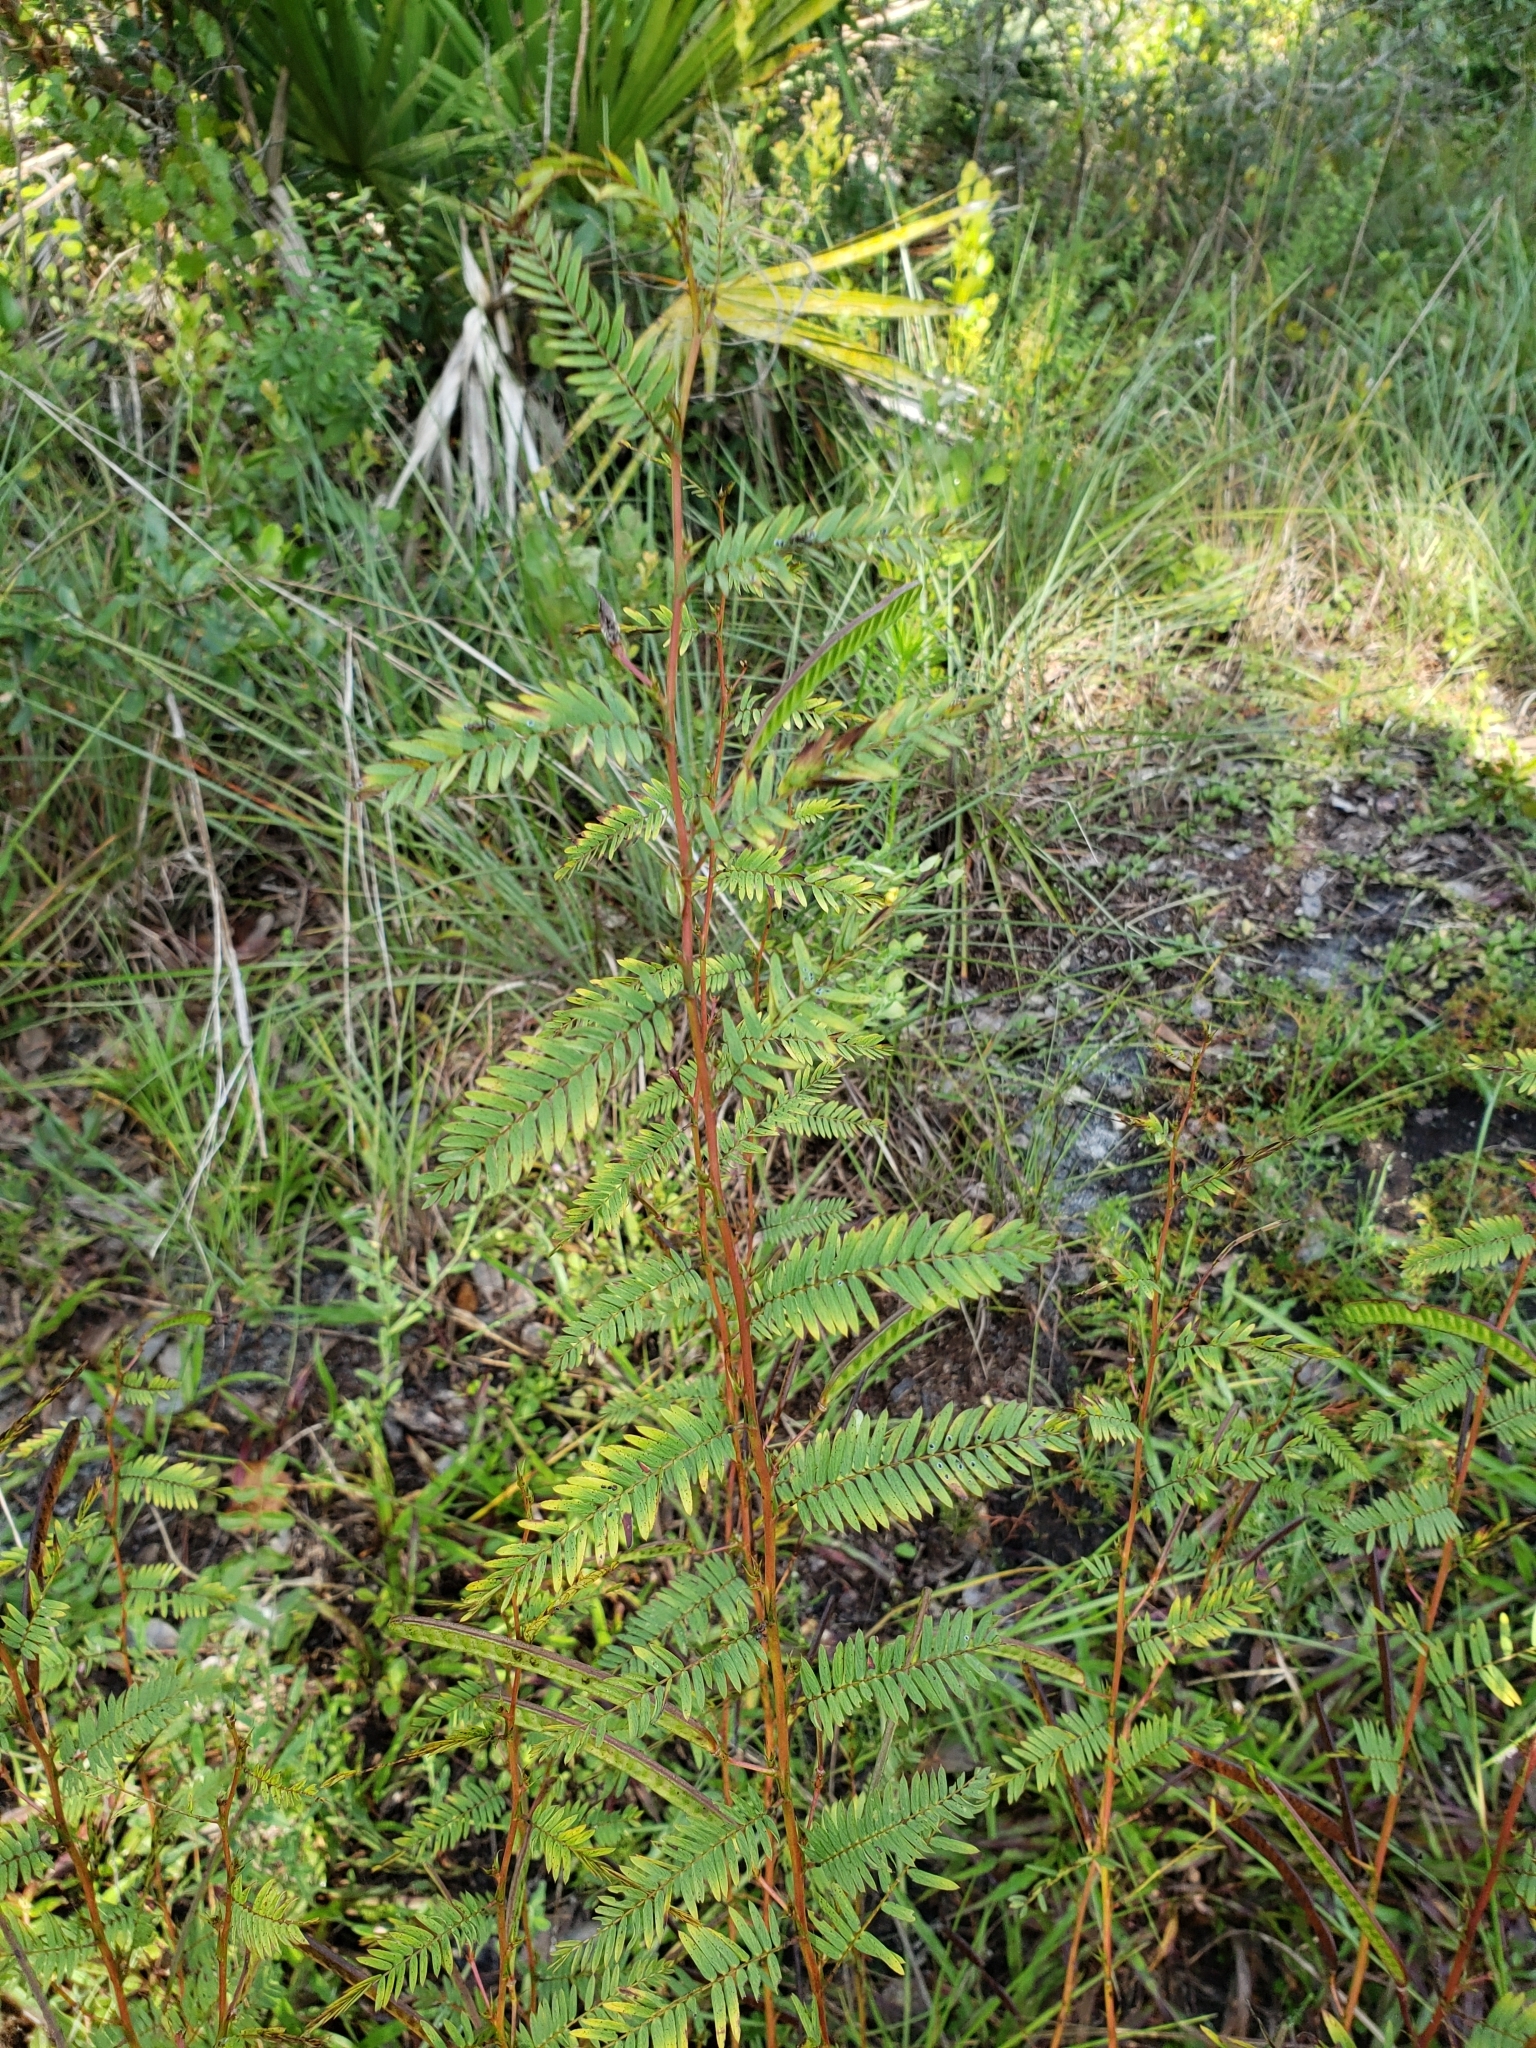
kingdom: Plantae
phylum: Tracheophyta
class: Magnoliopsida
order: Fabales
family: Fabaceae
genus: Chamaecrista
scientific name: Chamaecrista fasciculata
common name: Golden cassia
